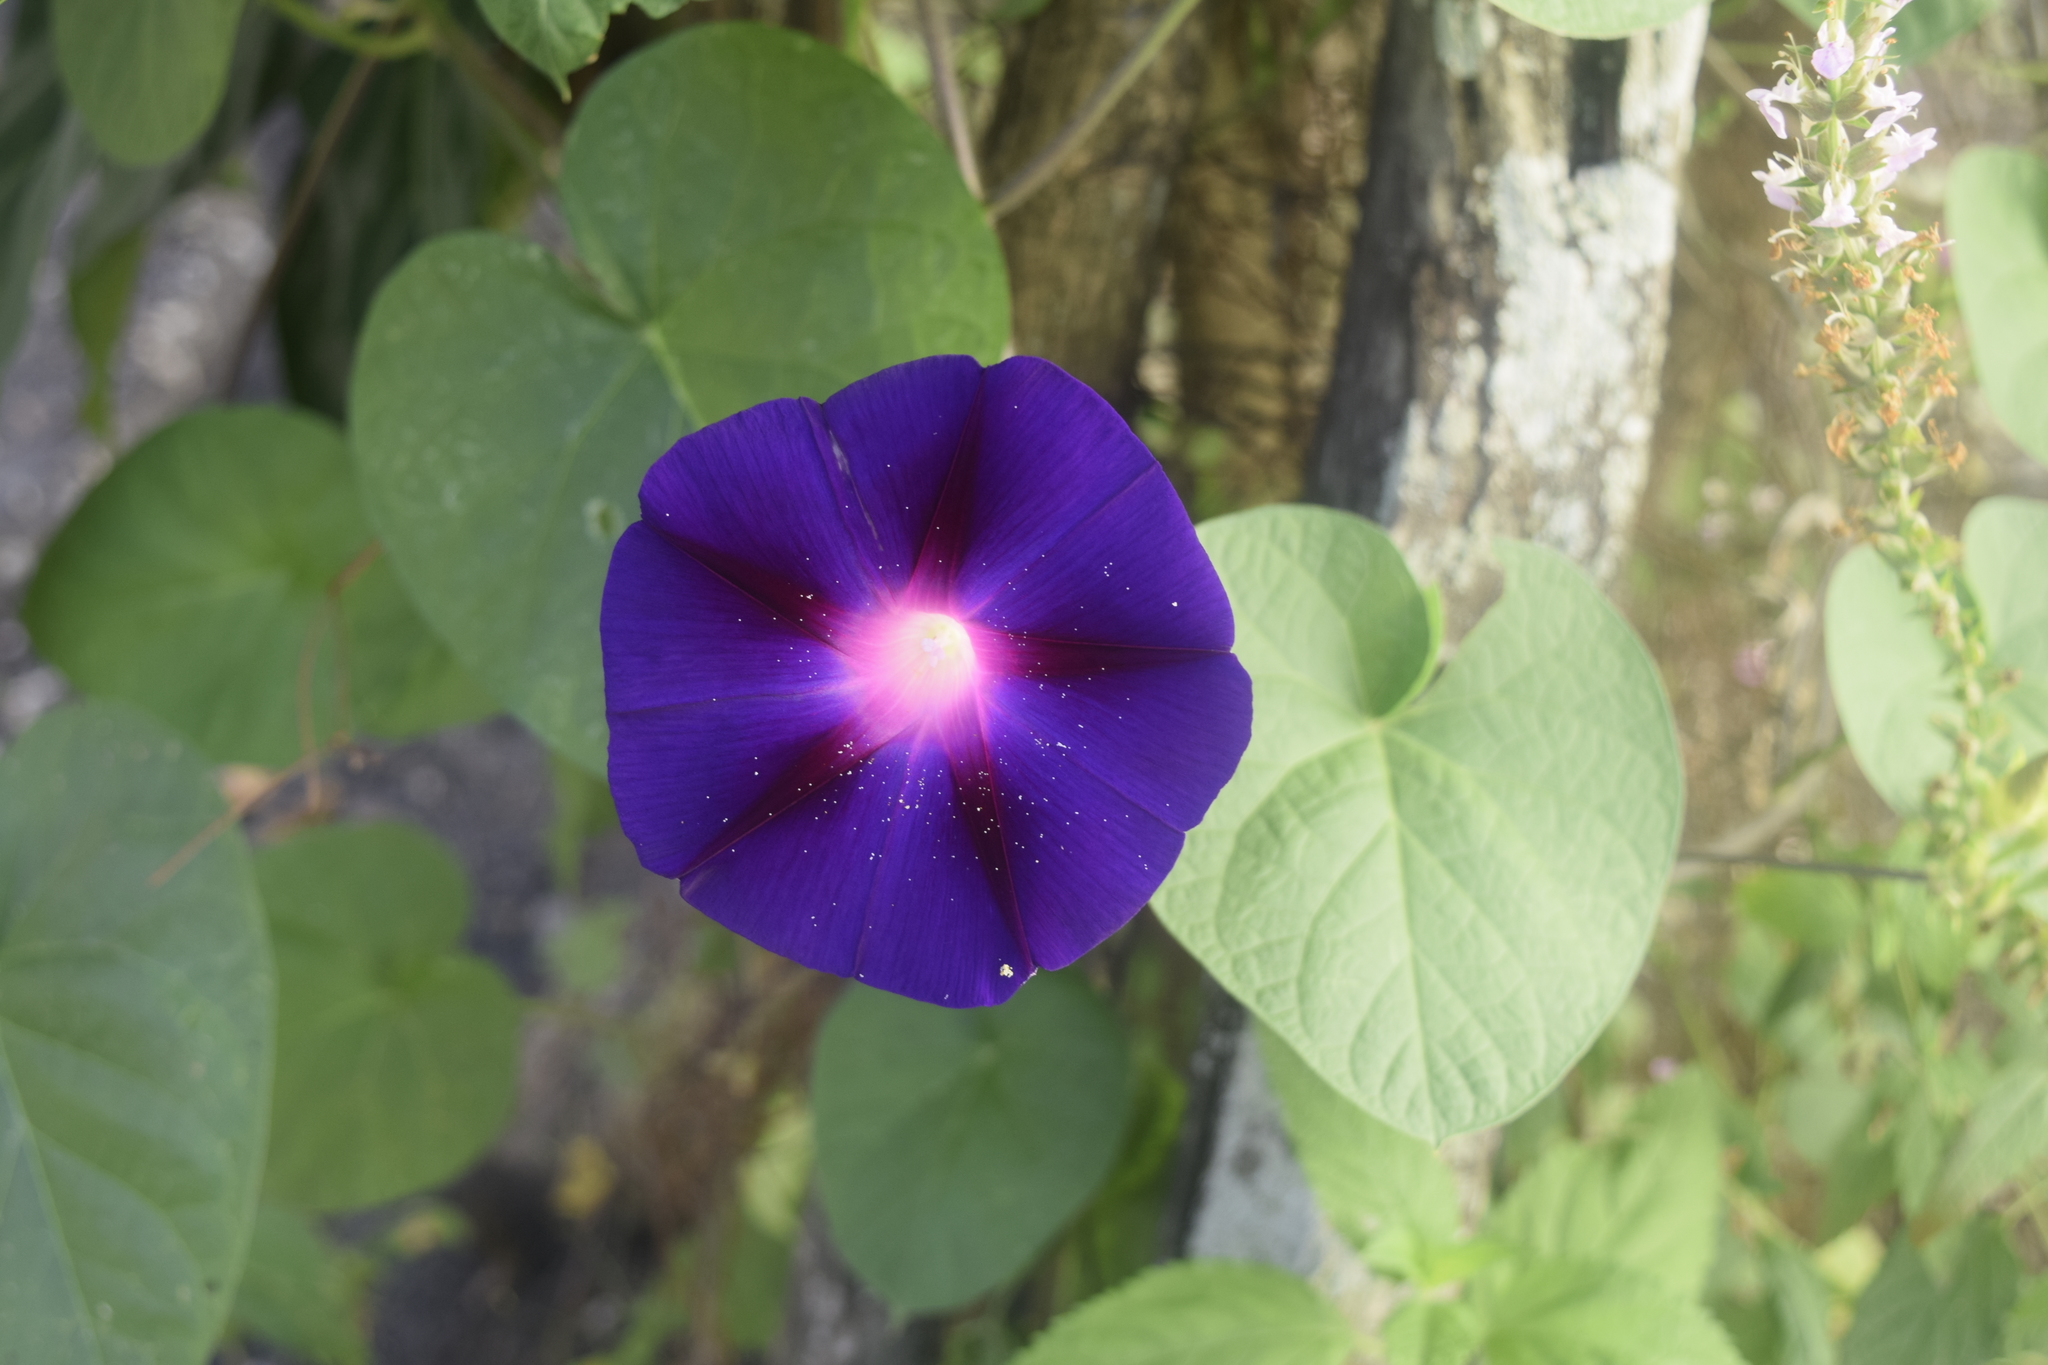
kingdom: Plantae
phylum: Tracheophyta
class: Magnoliopsida
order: Solanales
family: Convolvulaceae
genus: Ipomoea
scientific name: Ipomoea purpurea
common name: Common morning-glory
